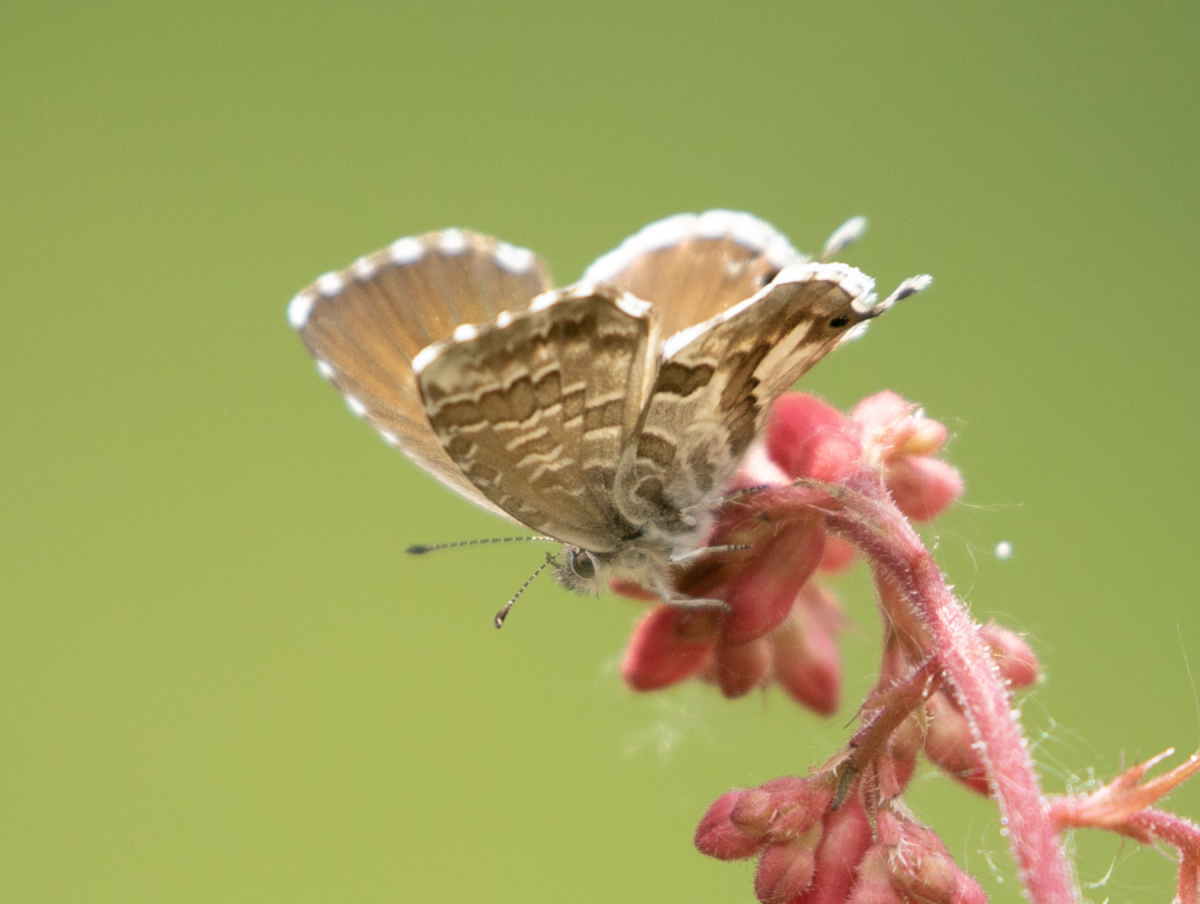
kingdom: Animalia
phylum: Arthropoda
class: Insecta
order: Lepidoptera
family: Lycaenidae
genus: Cacyreus
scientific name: Cacyreus marshalli
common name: Geranium bronze
